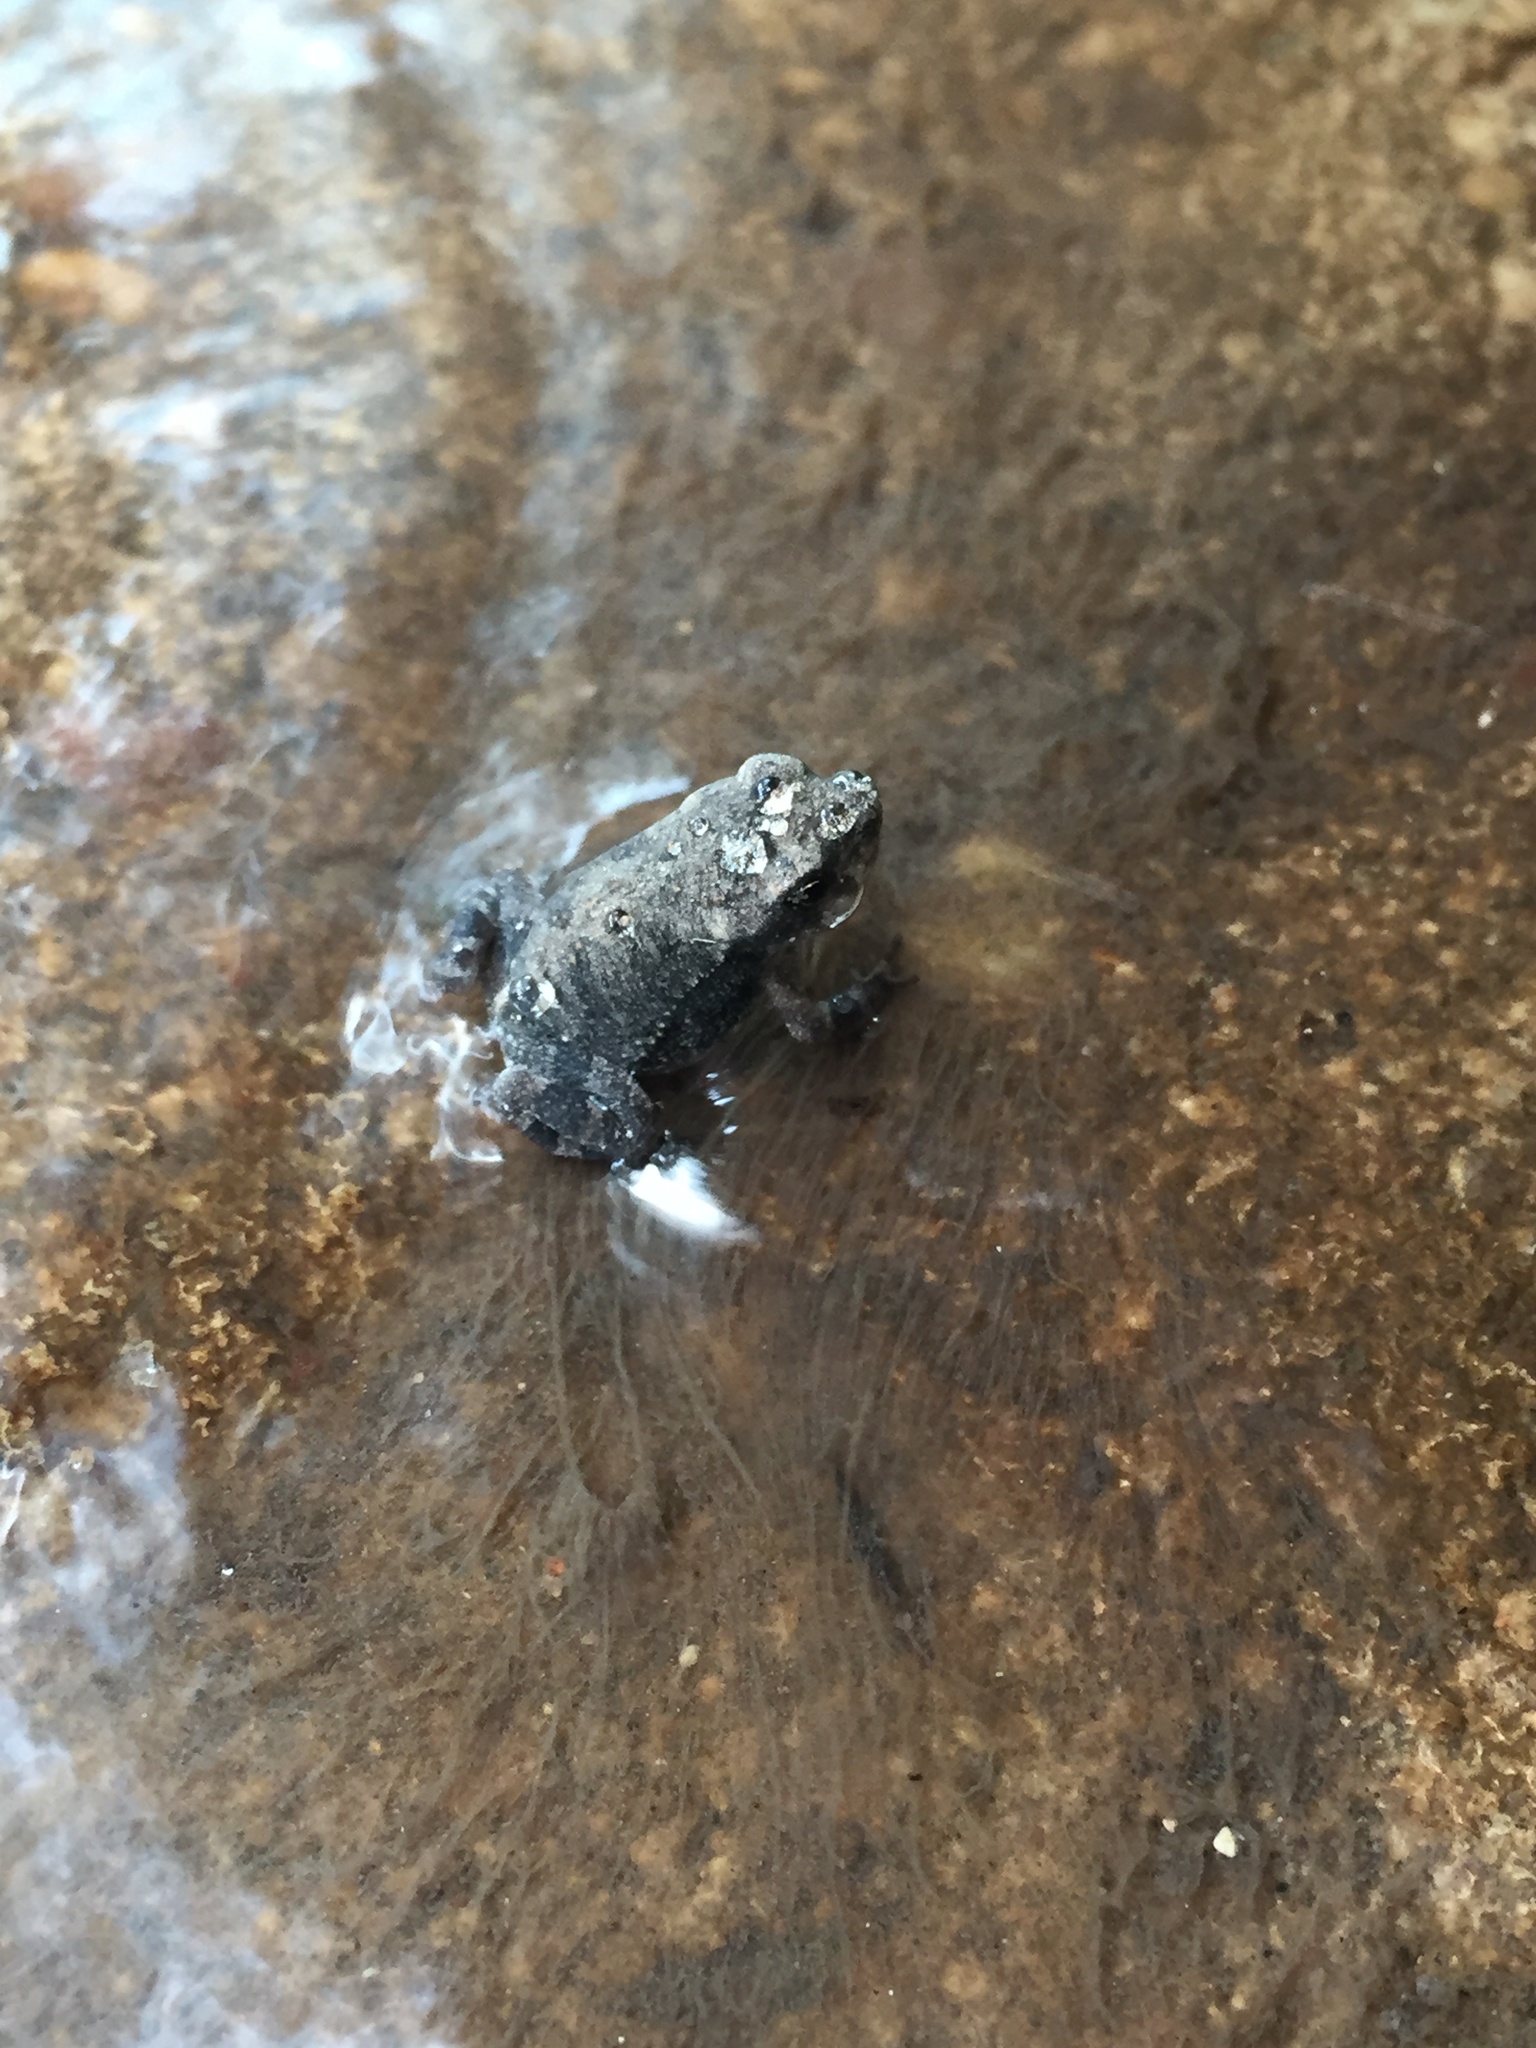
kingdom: Animalia
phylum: Chordata
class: Amphibia
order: Anura
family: Bufonidae
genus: Incilius
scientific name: Incilius nebulifer
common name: Gulf coast toad
